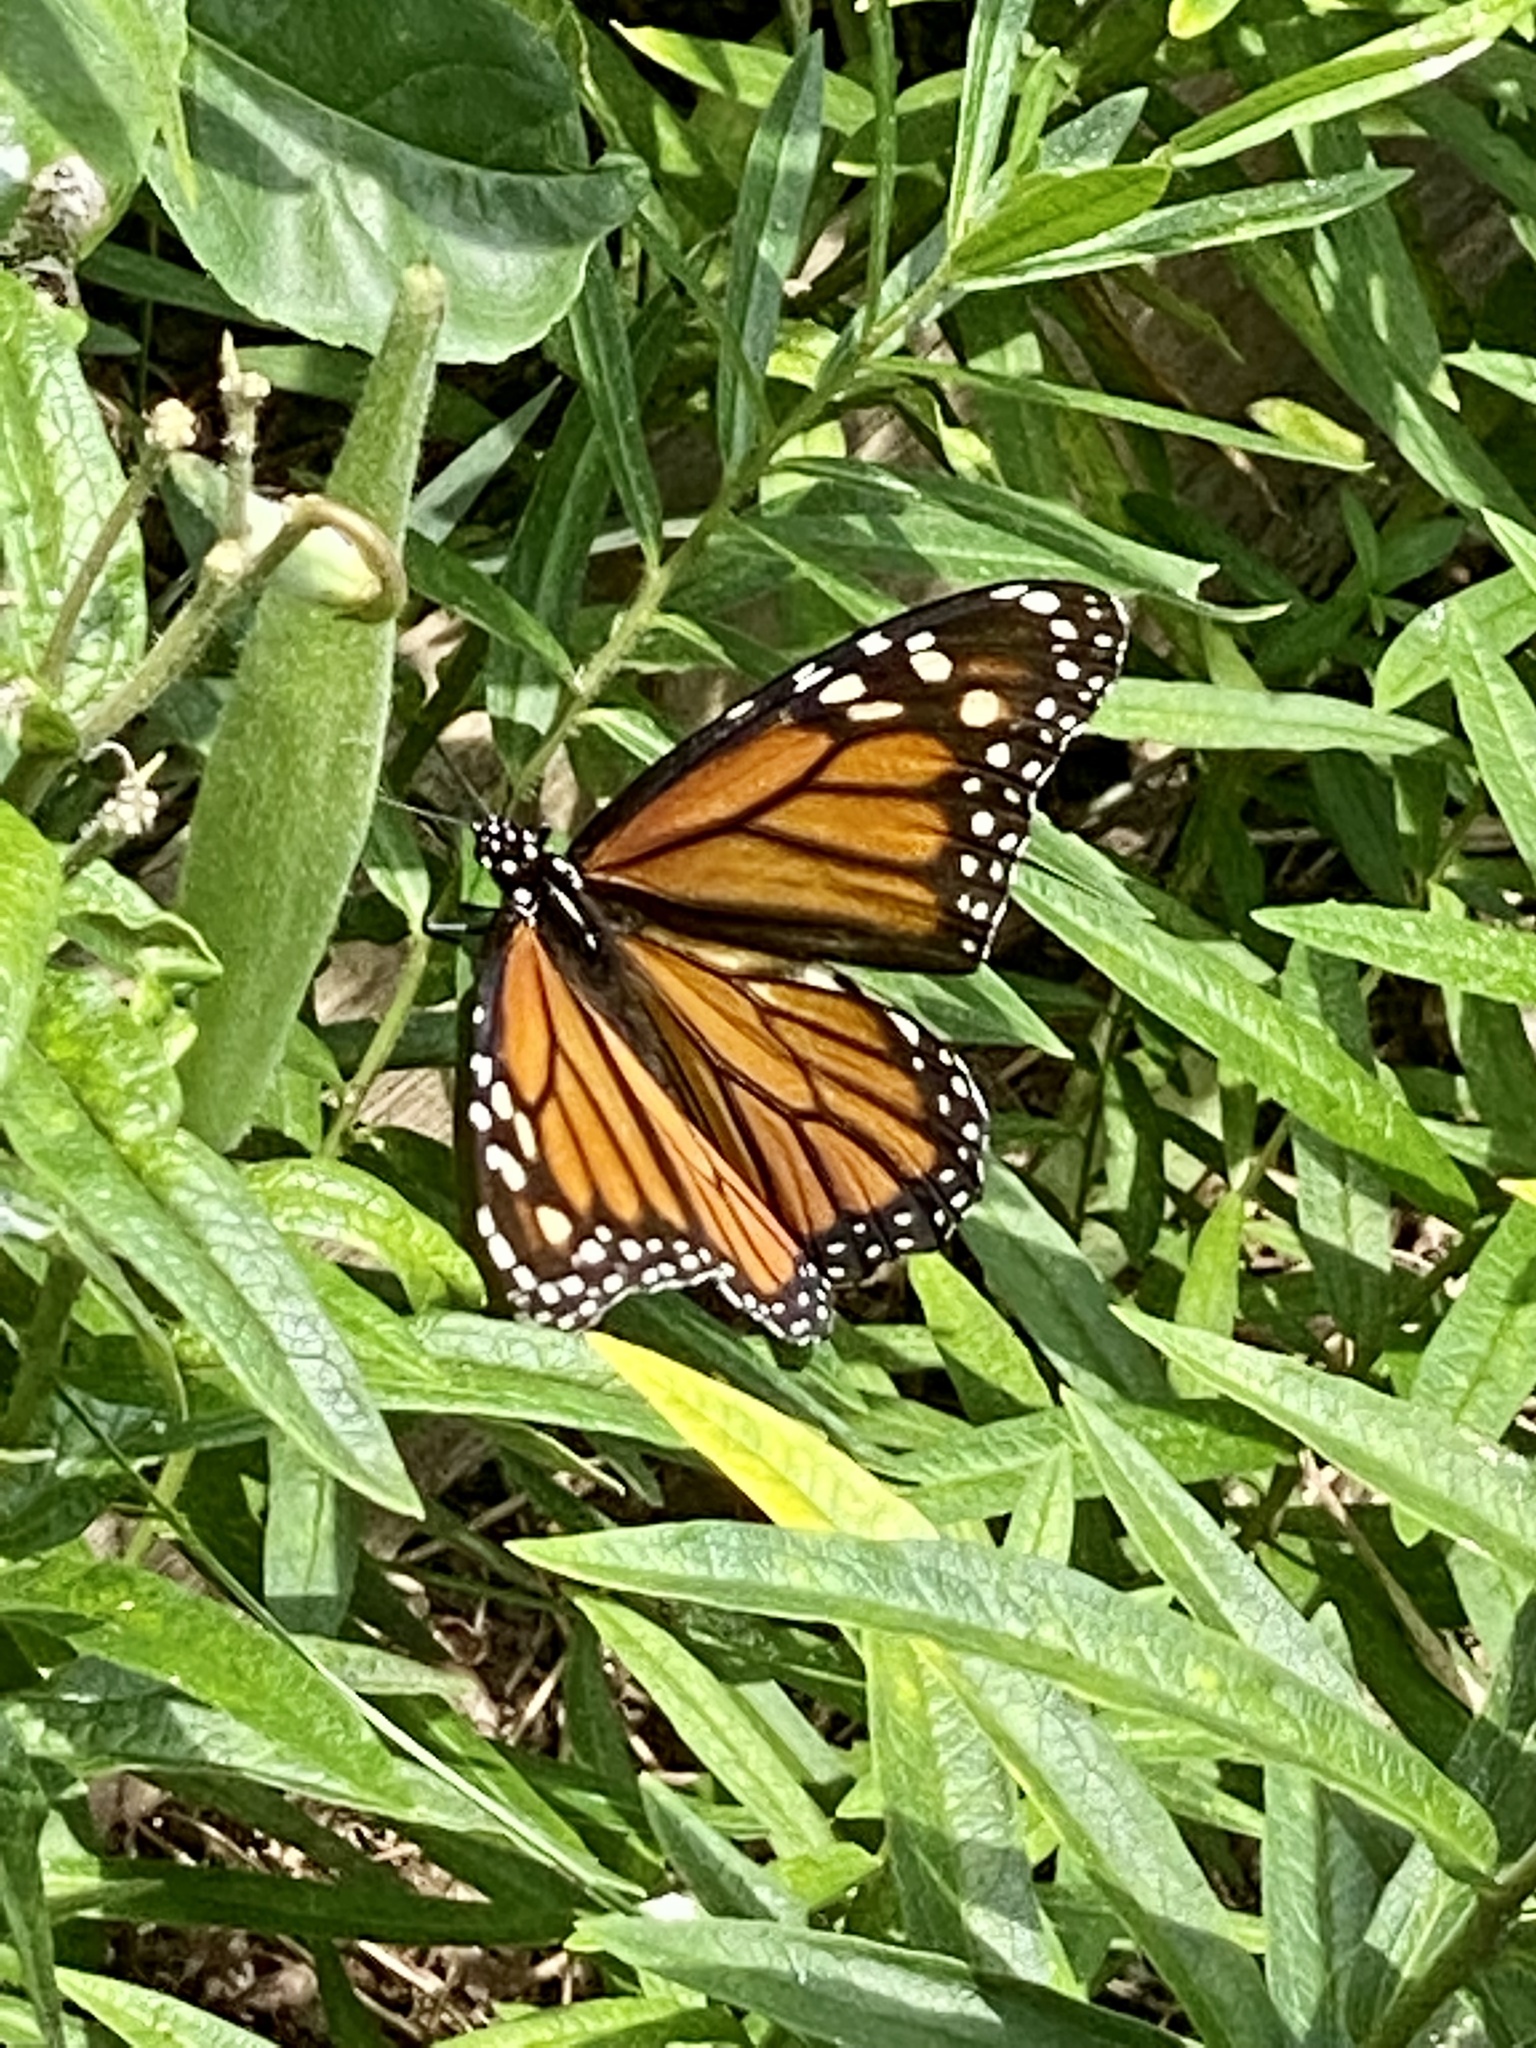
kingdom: Animalia
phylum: Arthropoda
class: Insecta
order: Lepidoptera
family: Nymphalidae
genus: Danaus
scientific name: Danaus plexippus
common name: Monarch
